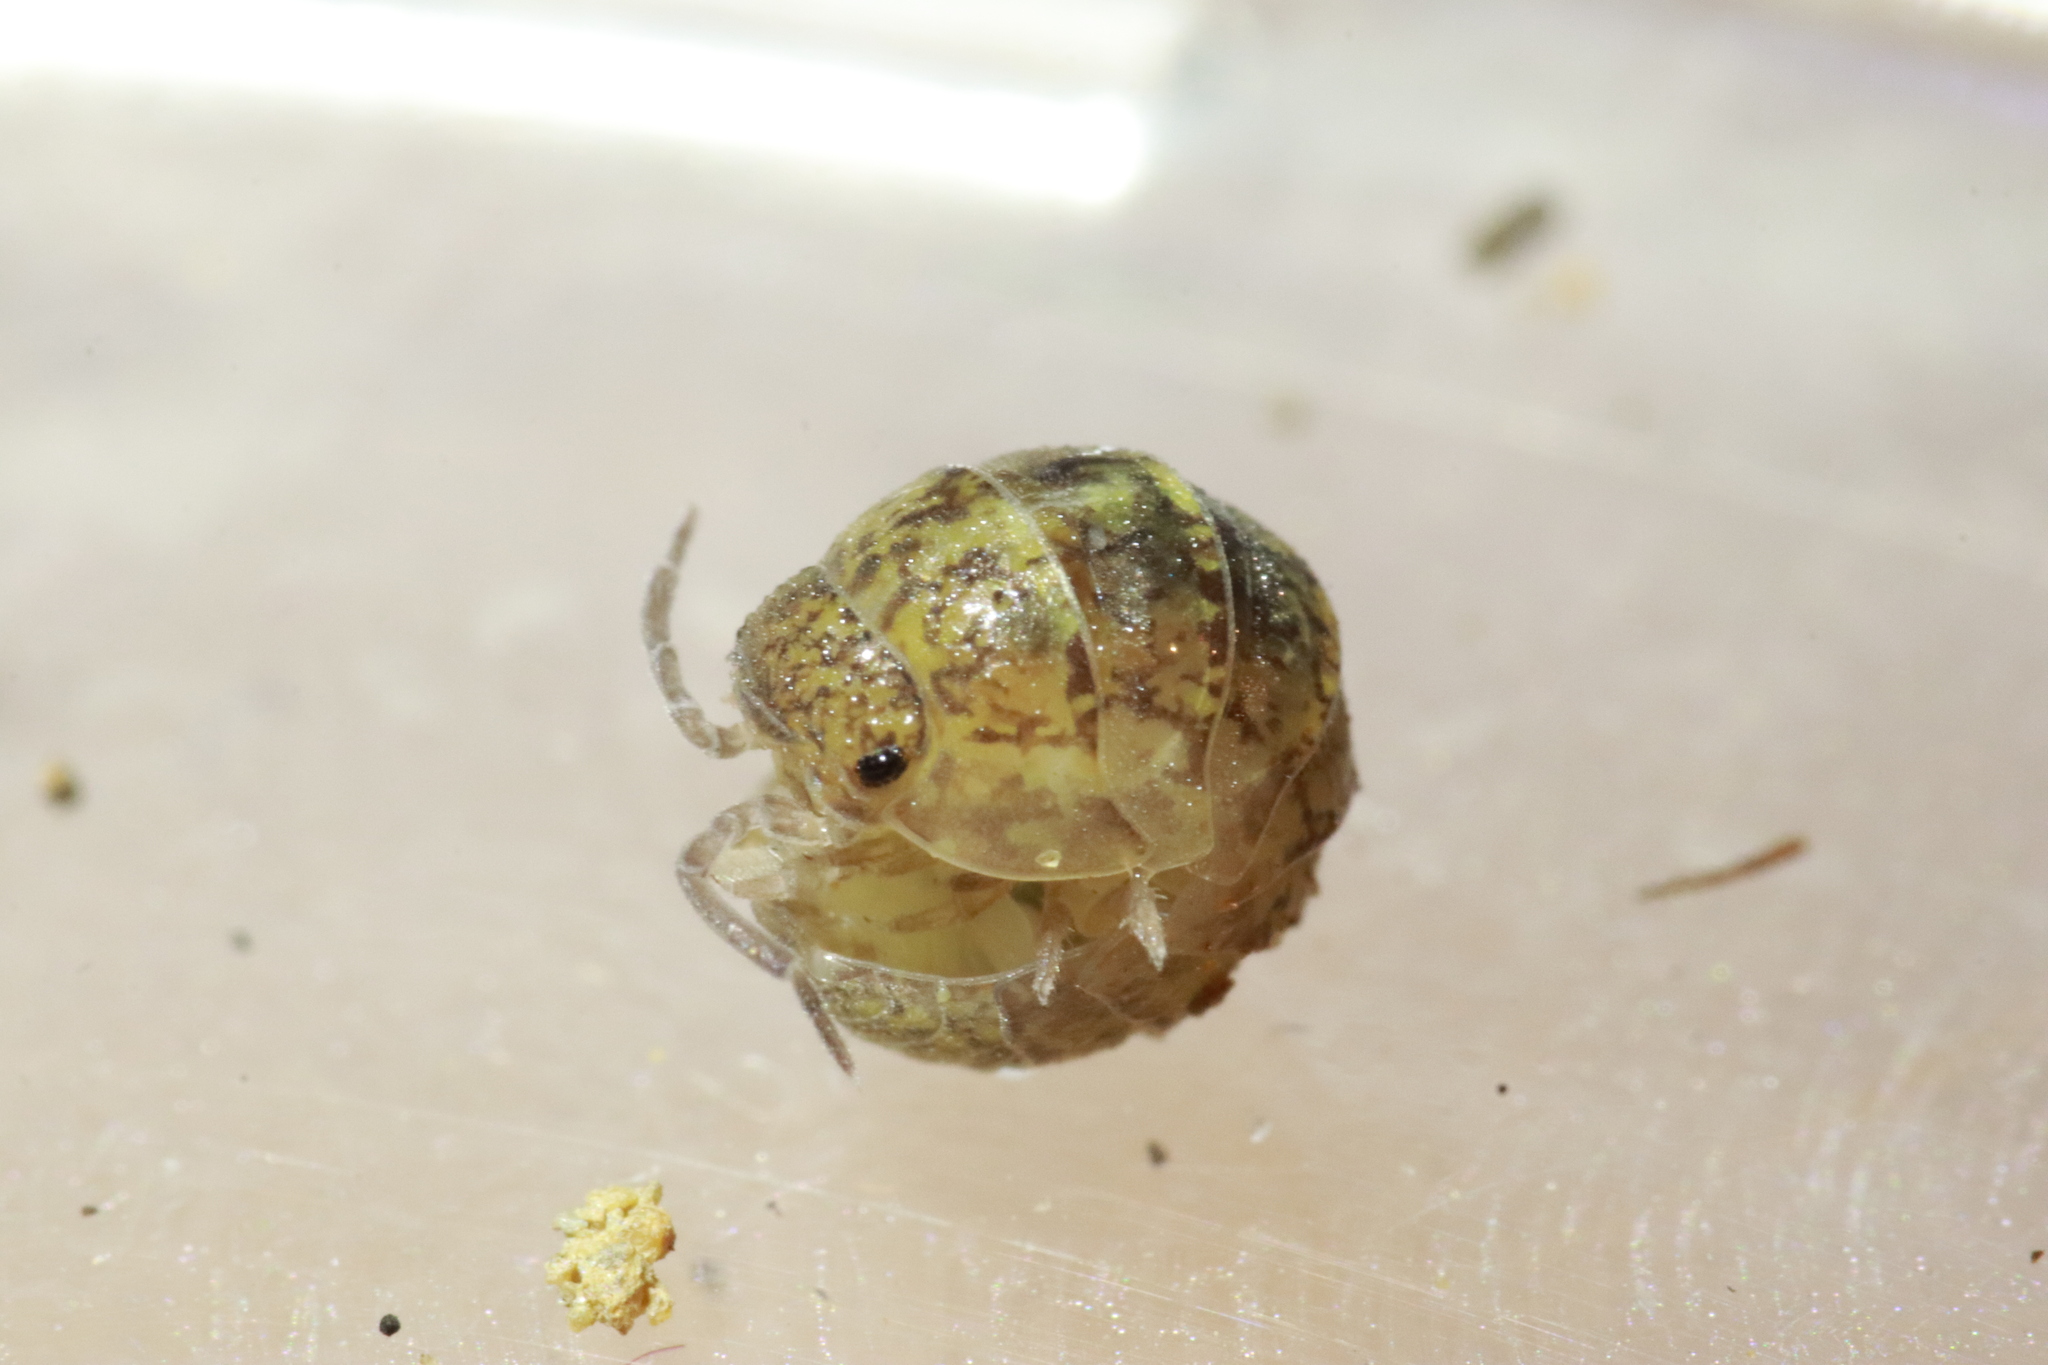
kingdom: Animalia
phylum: Arthropoda
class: Malacostraca
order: Isopoda
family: Armadillidiidae
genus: Armadillidium
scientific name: Armadillidium arcangelii
